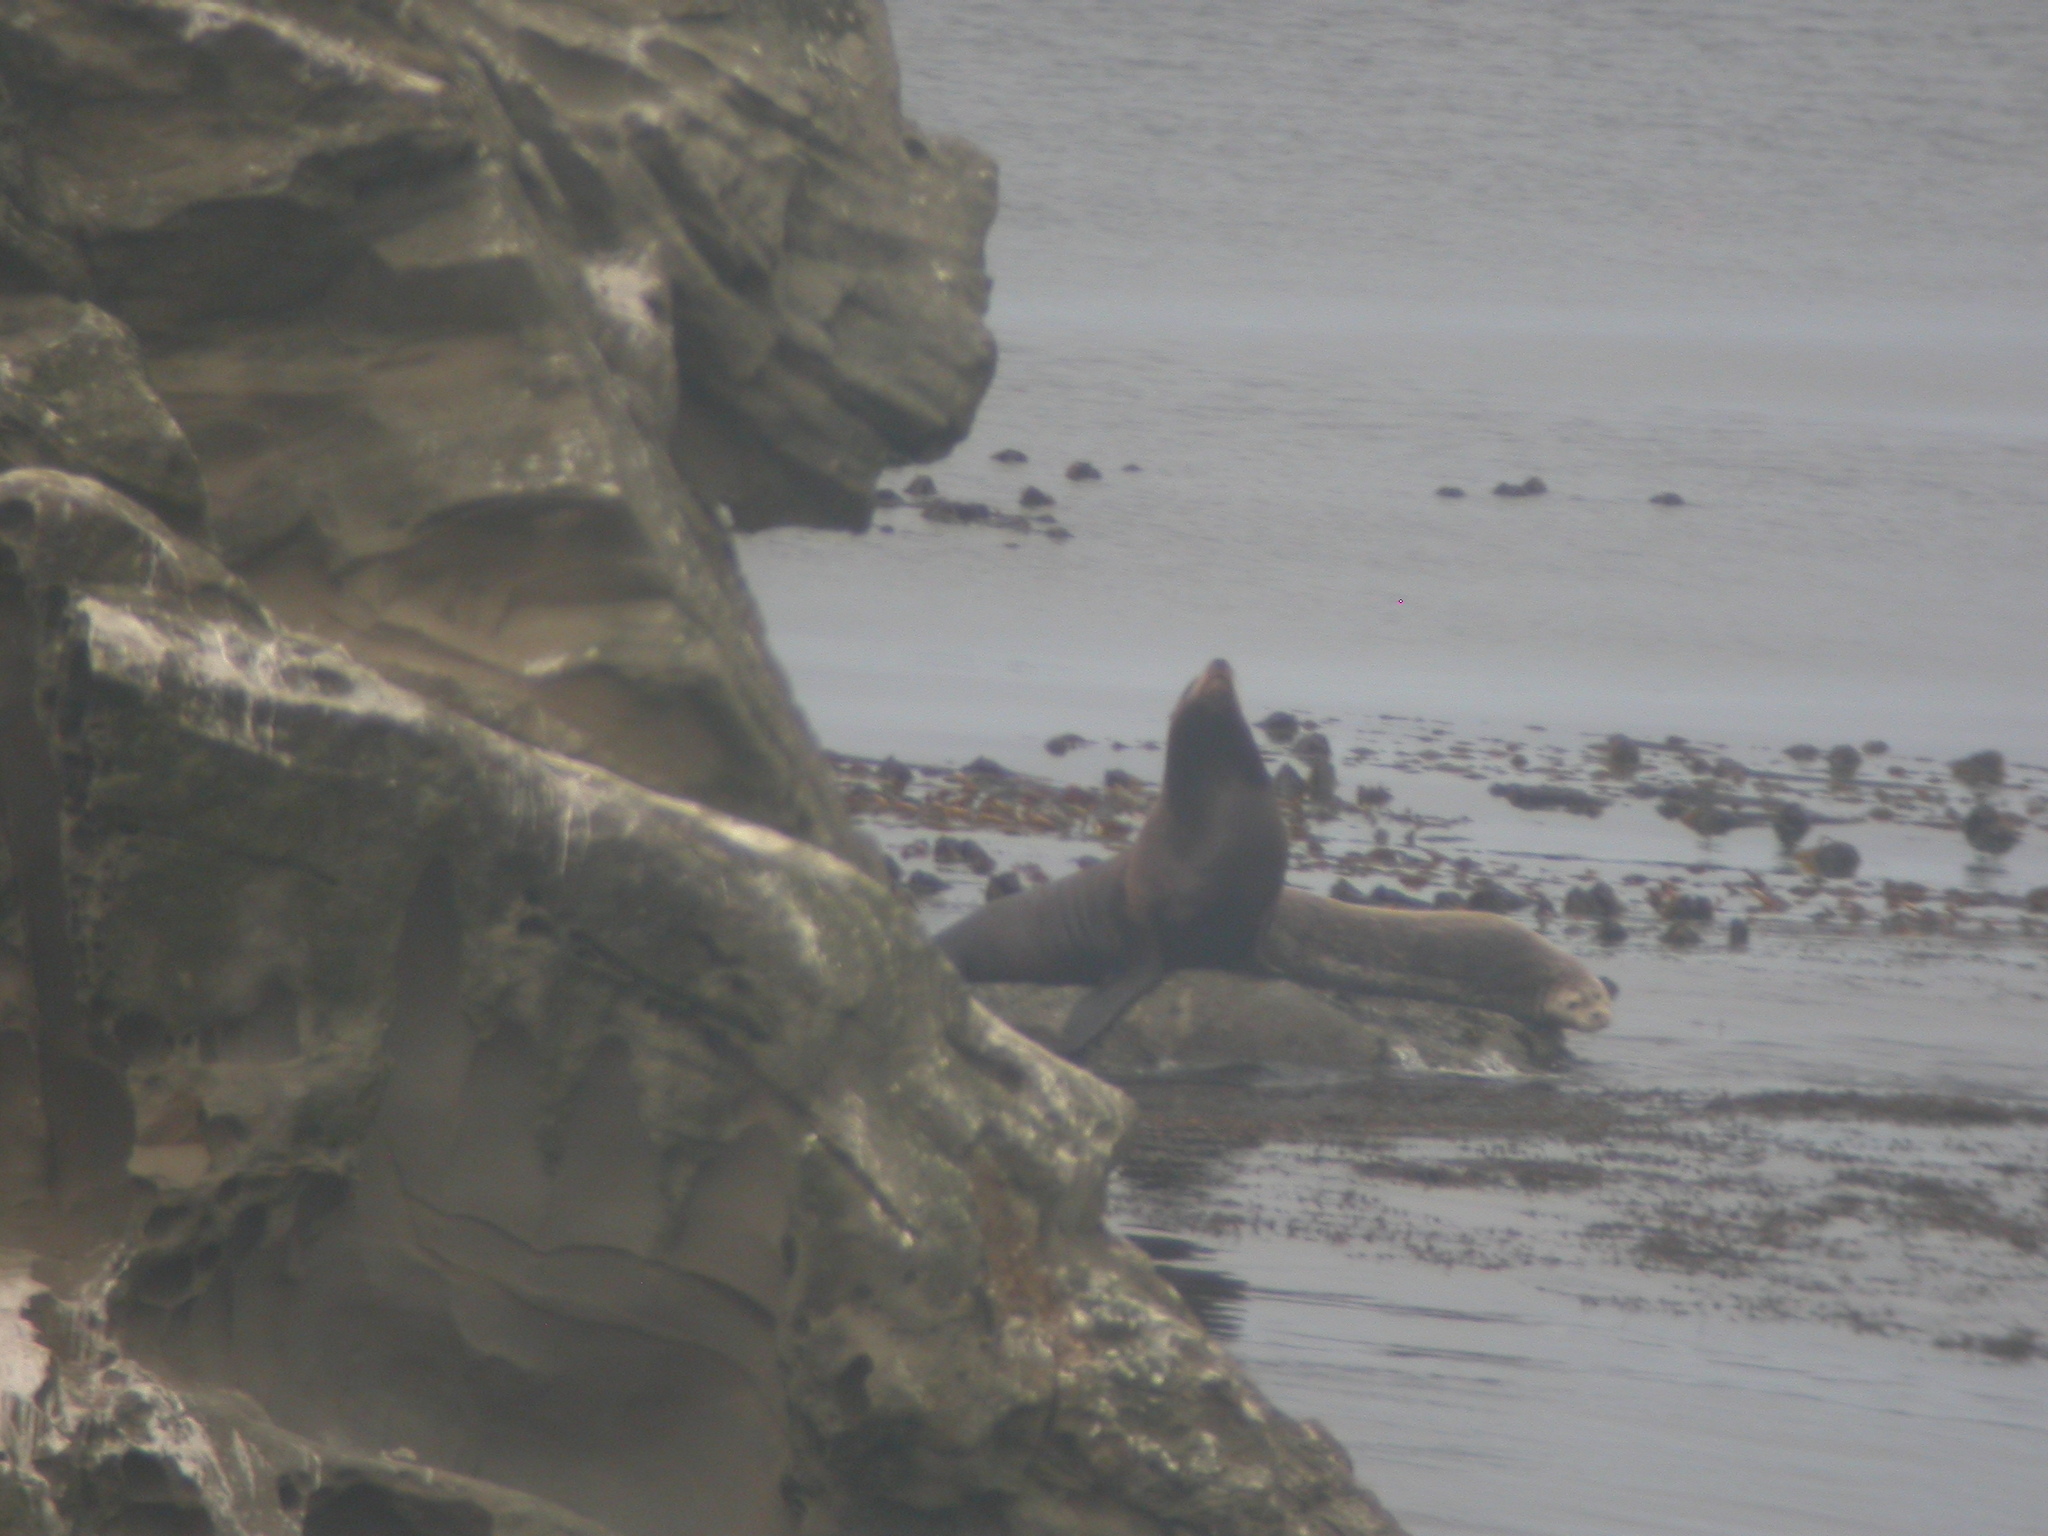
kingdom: Animalia
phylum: Chordata
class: Mammalia
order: Carnivora
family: Otariidae
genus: Zalophus
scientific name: Zalophus californianus
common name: California sea lion
